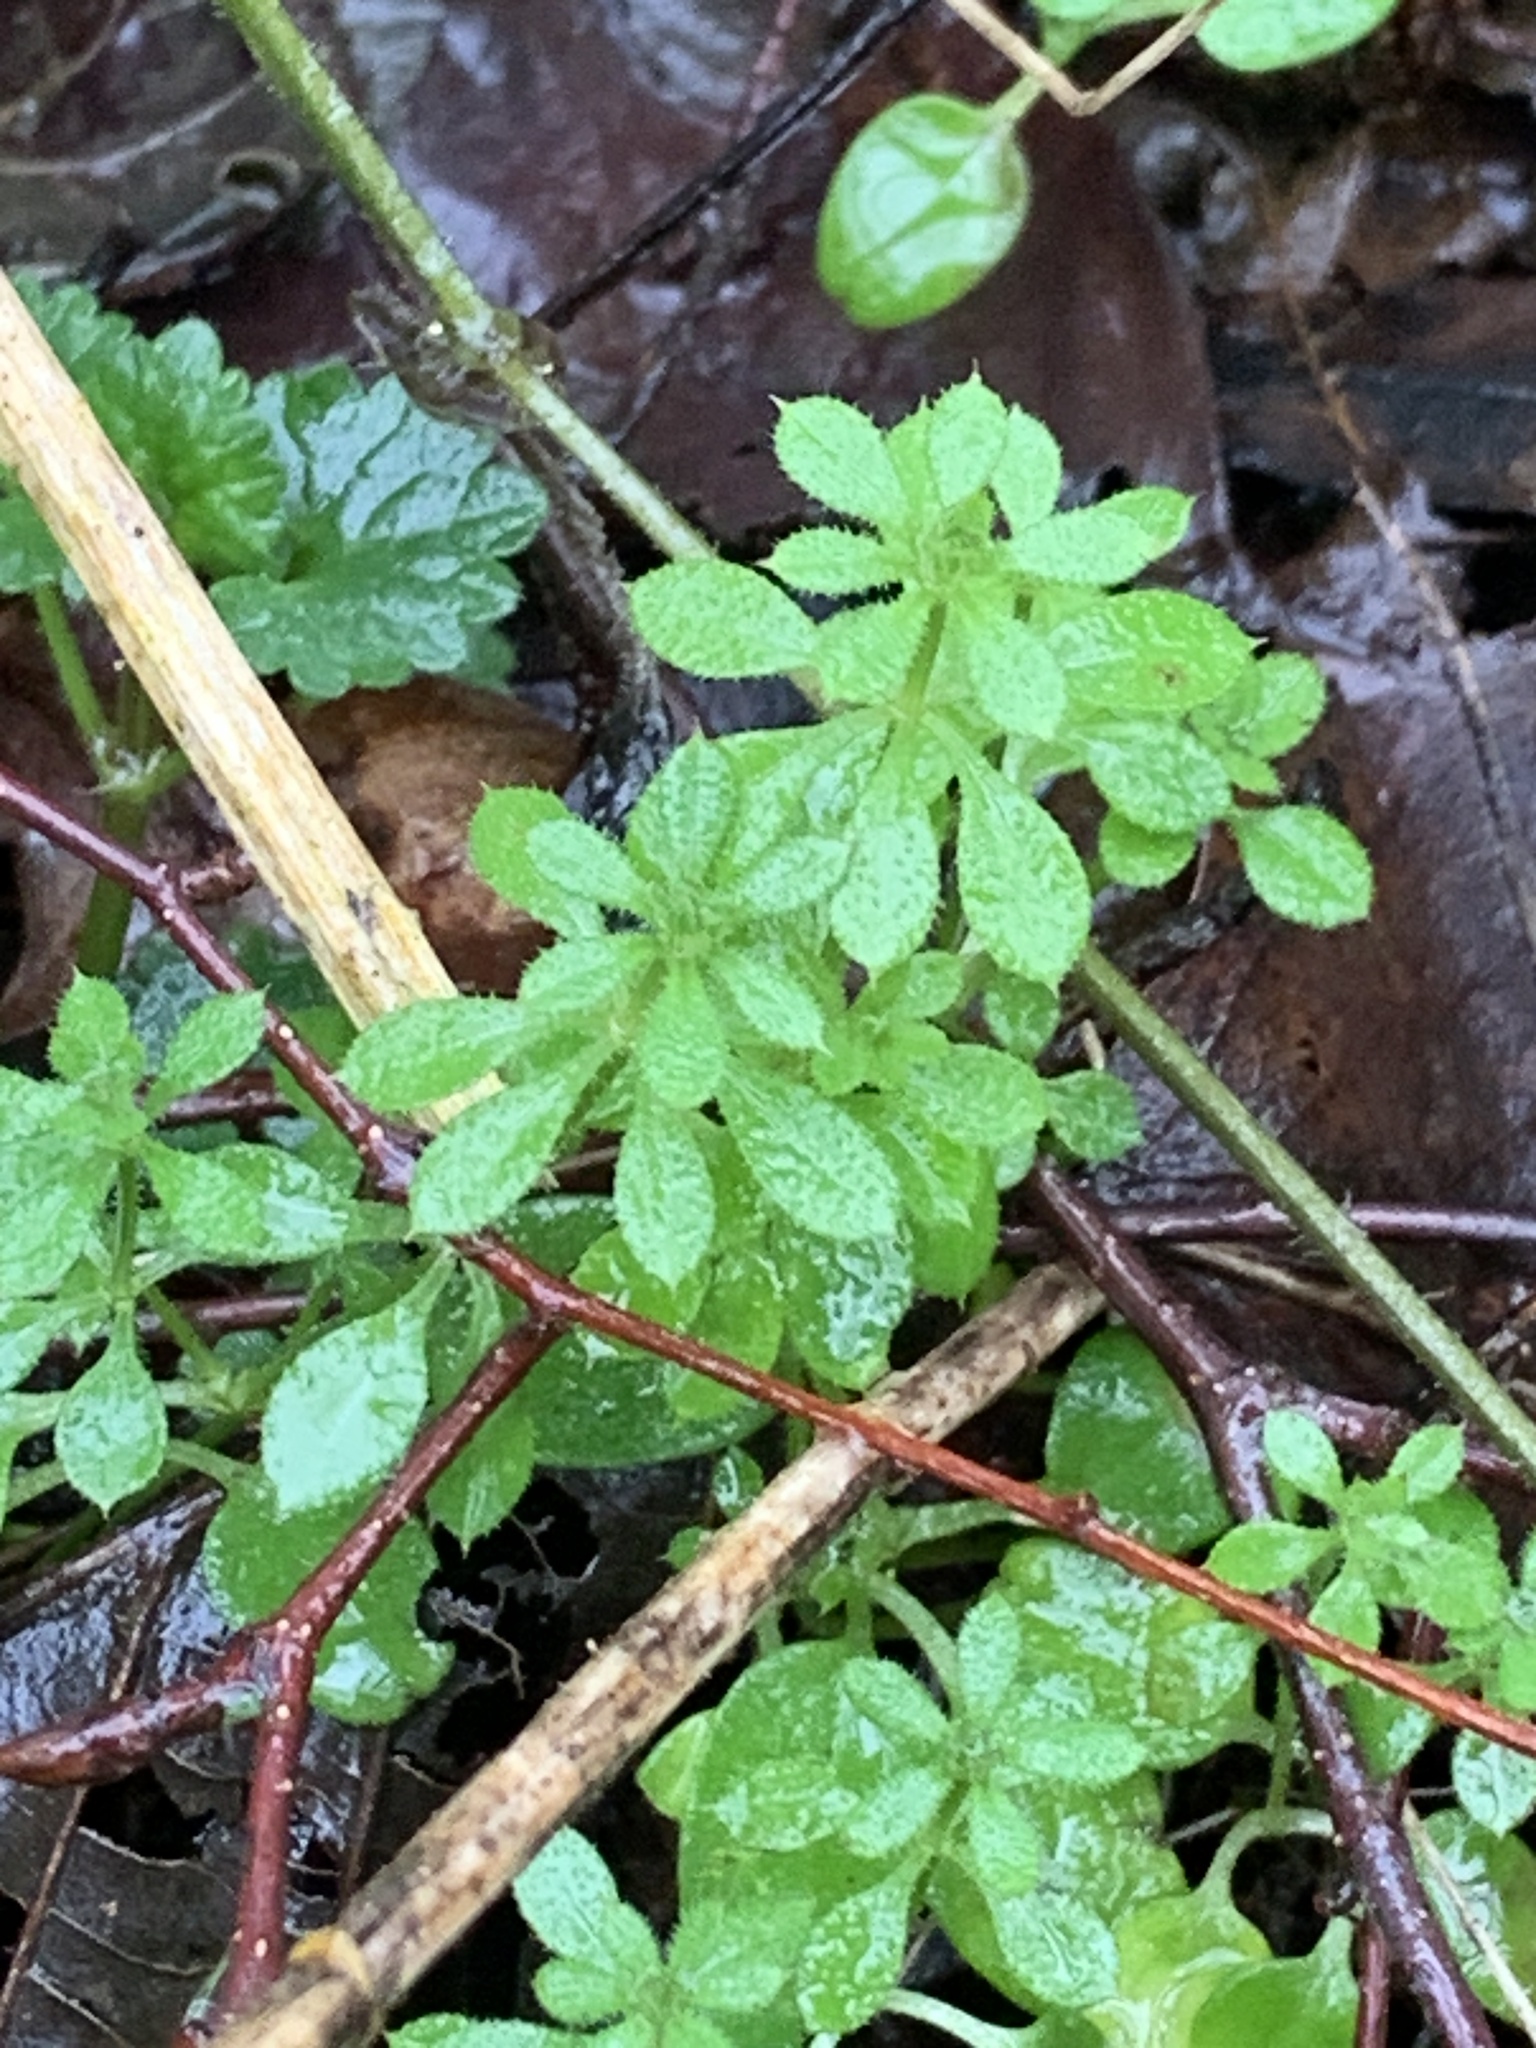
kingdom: Plantae
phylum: Tracheophyta
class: Magnoliopsida
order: Gentianales
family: Rubiaceae
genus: Galium
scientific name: Galium aparine
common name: Cleavers
